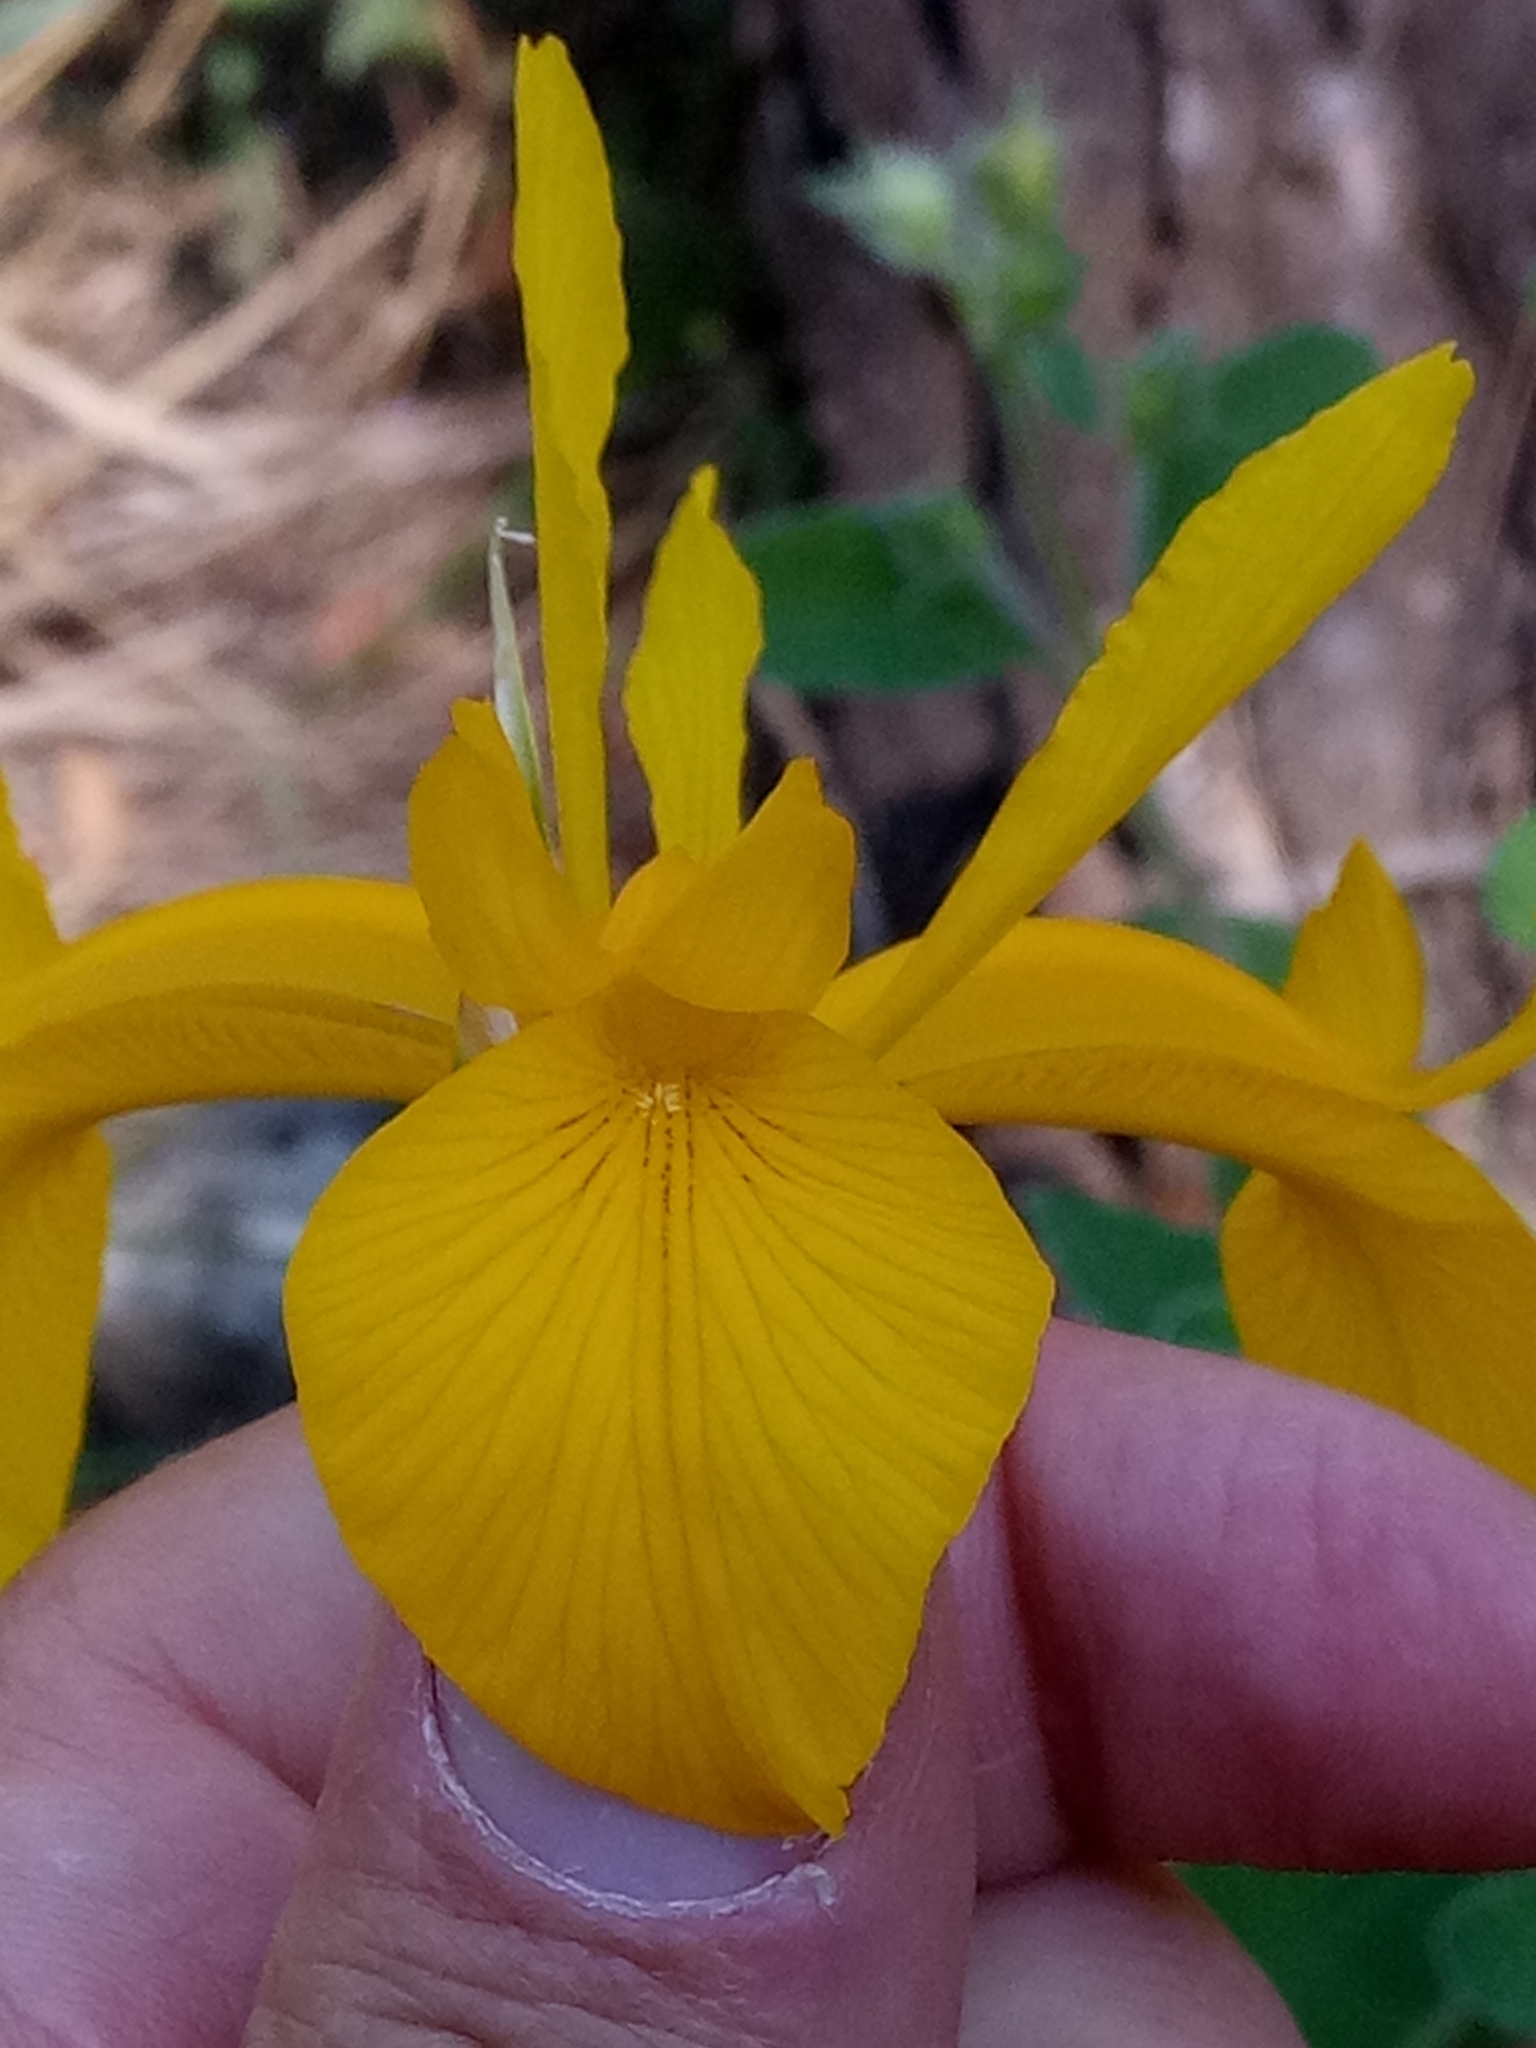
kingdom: Plantae
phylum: Tracheophyta
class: Liliopsida
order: Asparagales
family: Iridaceae
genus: Iris
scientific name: Iris juncea
